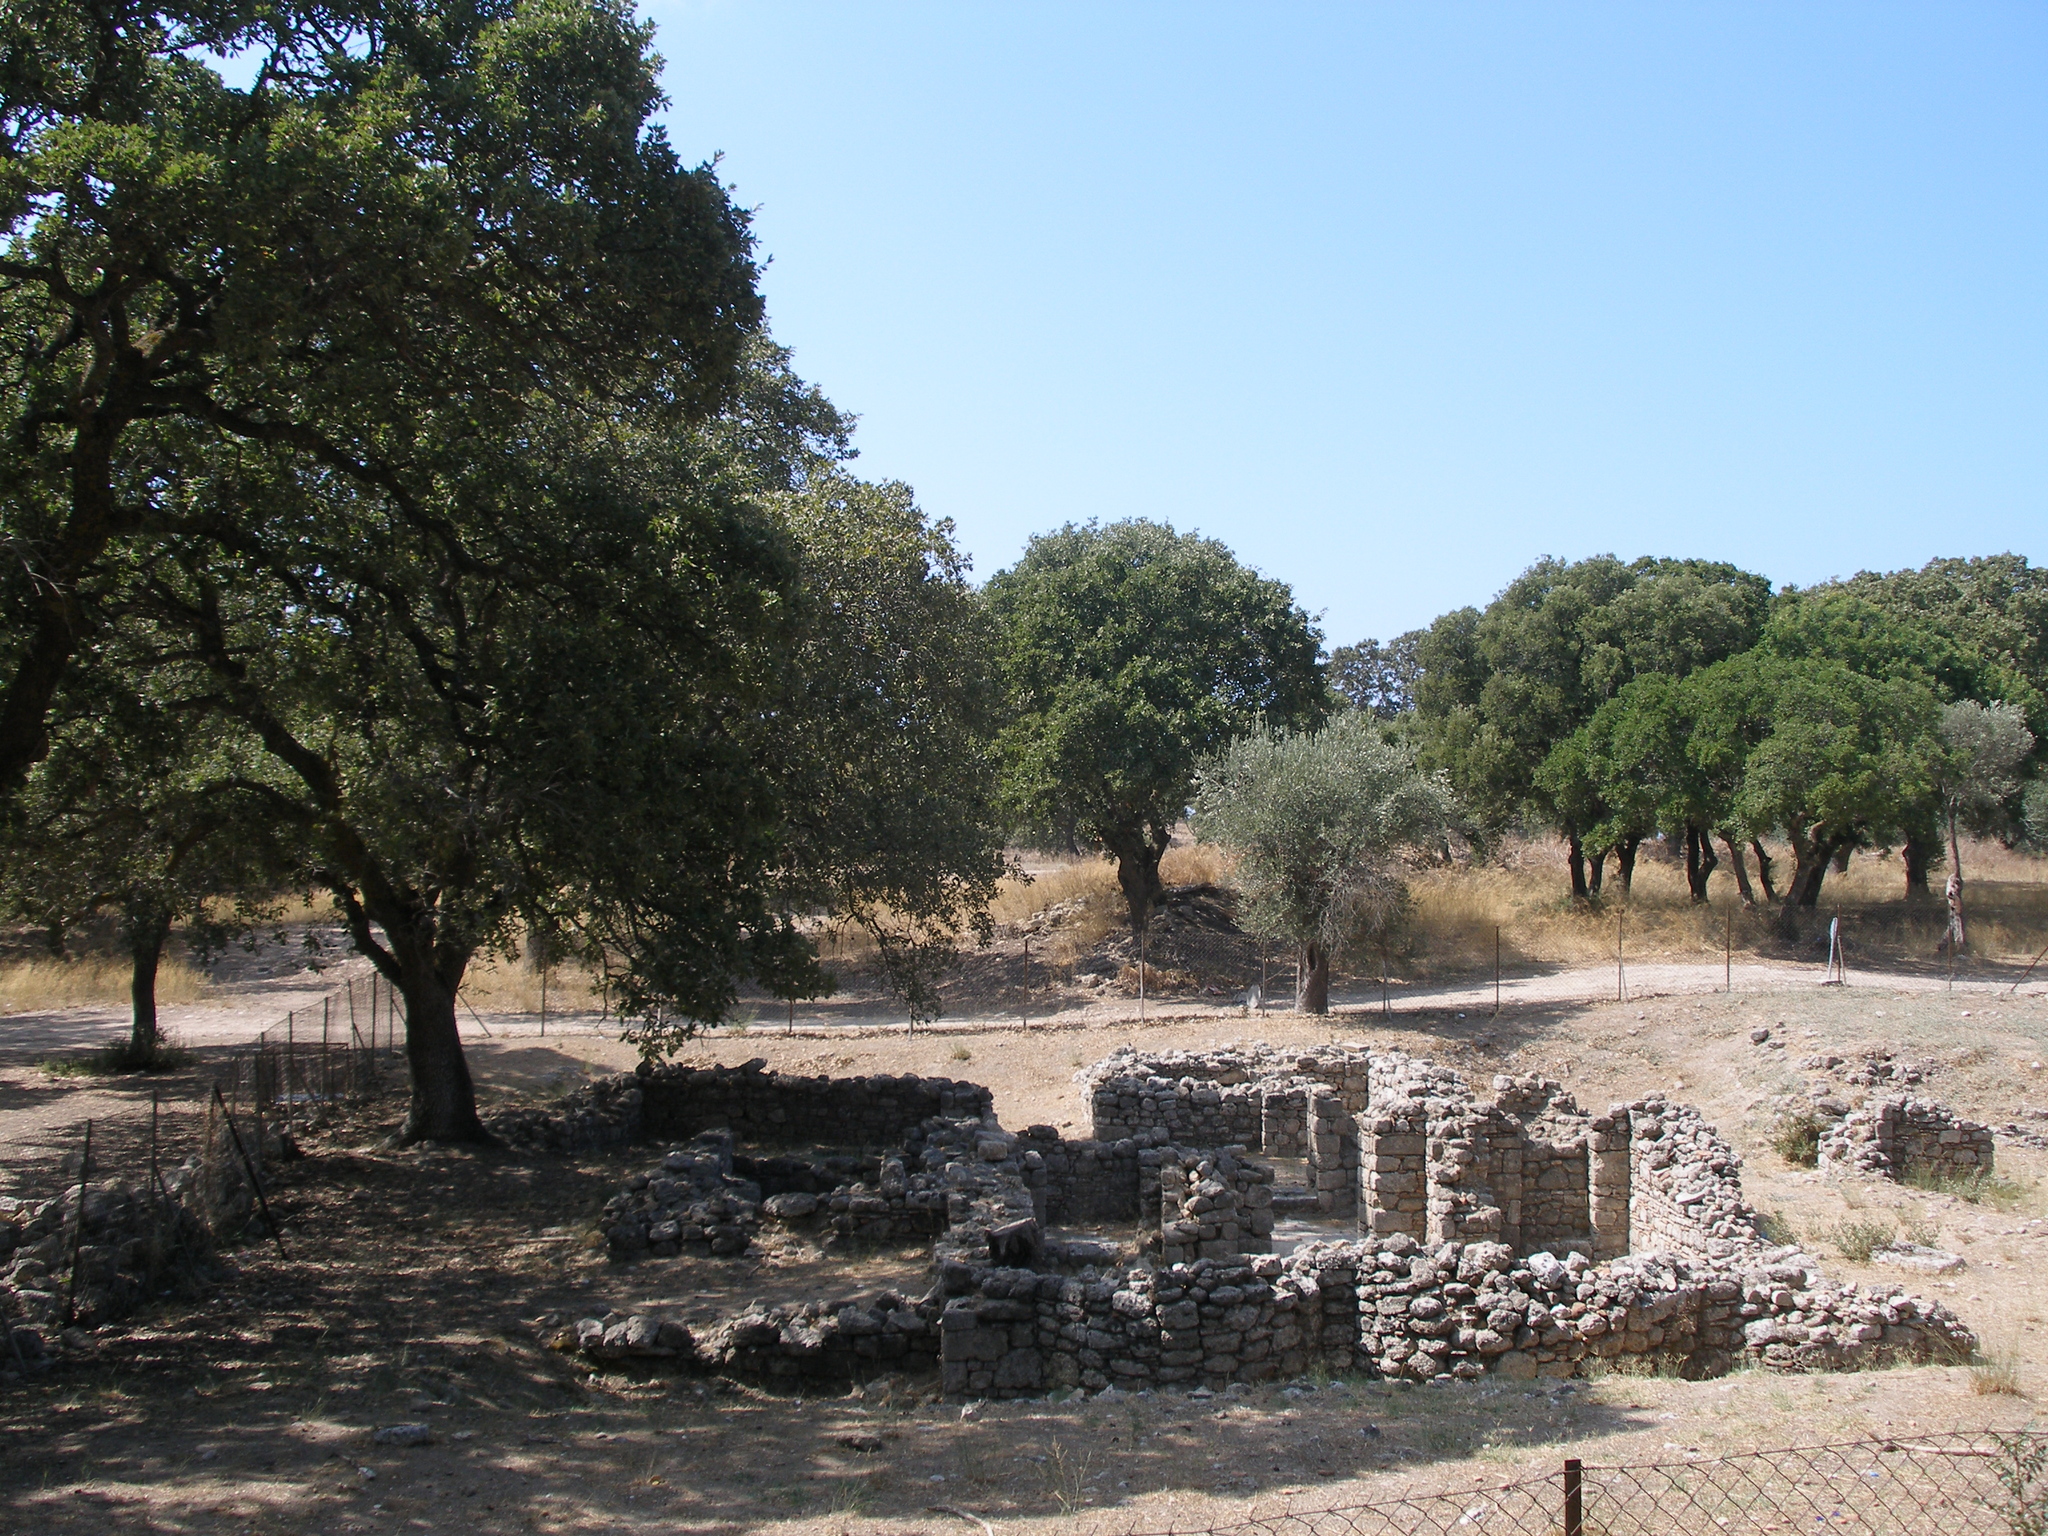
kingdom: Plantae
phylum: Tracheophyta
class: Magnoliopsida
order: Fagales
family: Fagaceae
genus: Quercus
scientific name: Quercus ithaburensis
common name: Tabor oak
